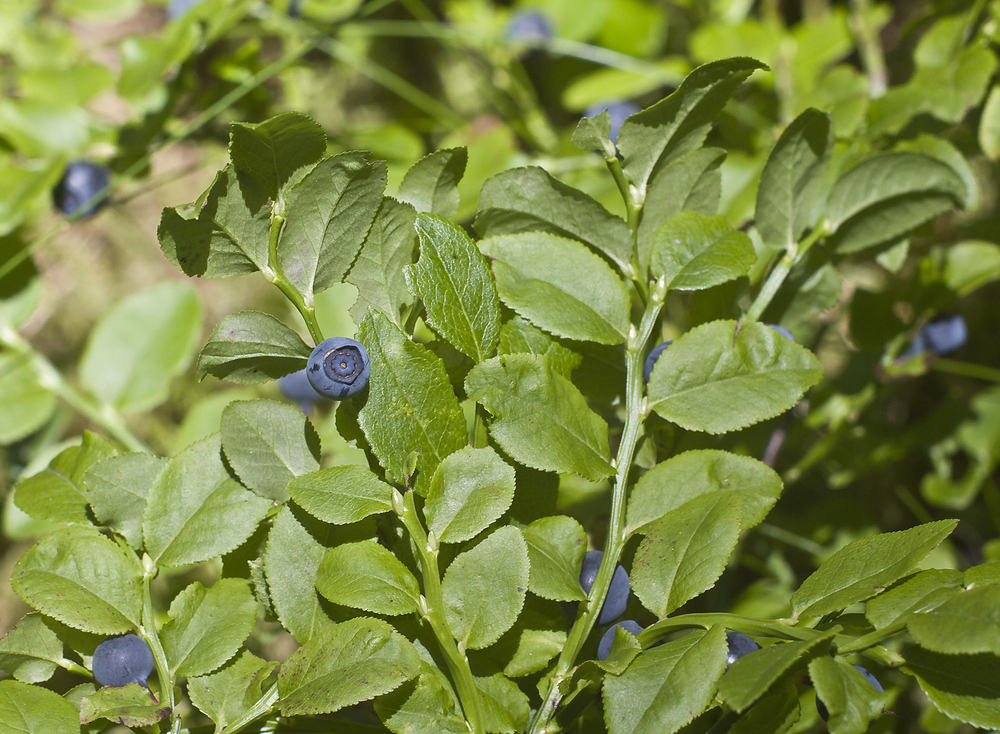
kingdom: Plantae
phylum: Tracheophyta
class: Magnoliopsida
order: Ericales
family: Ericaceae
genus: Vaccinium
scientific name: Vaccinium myrtillus
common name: Bilberry
